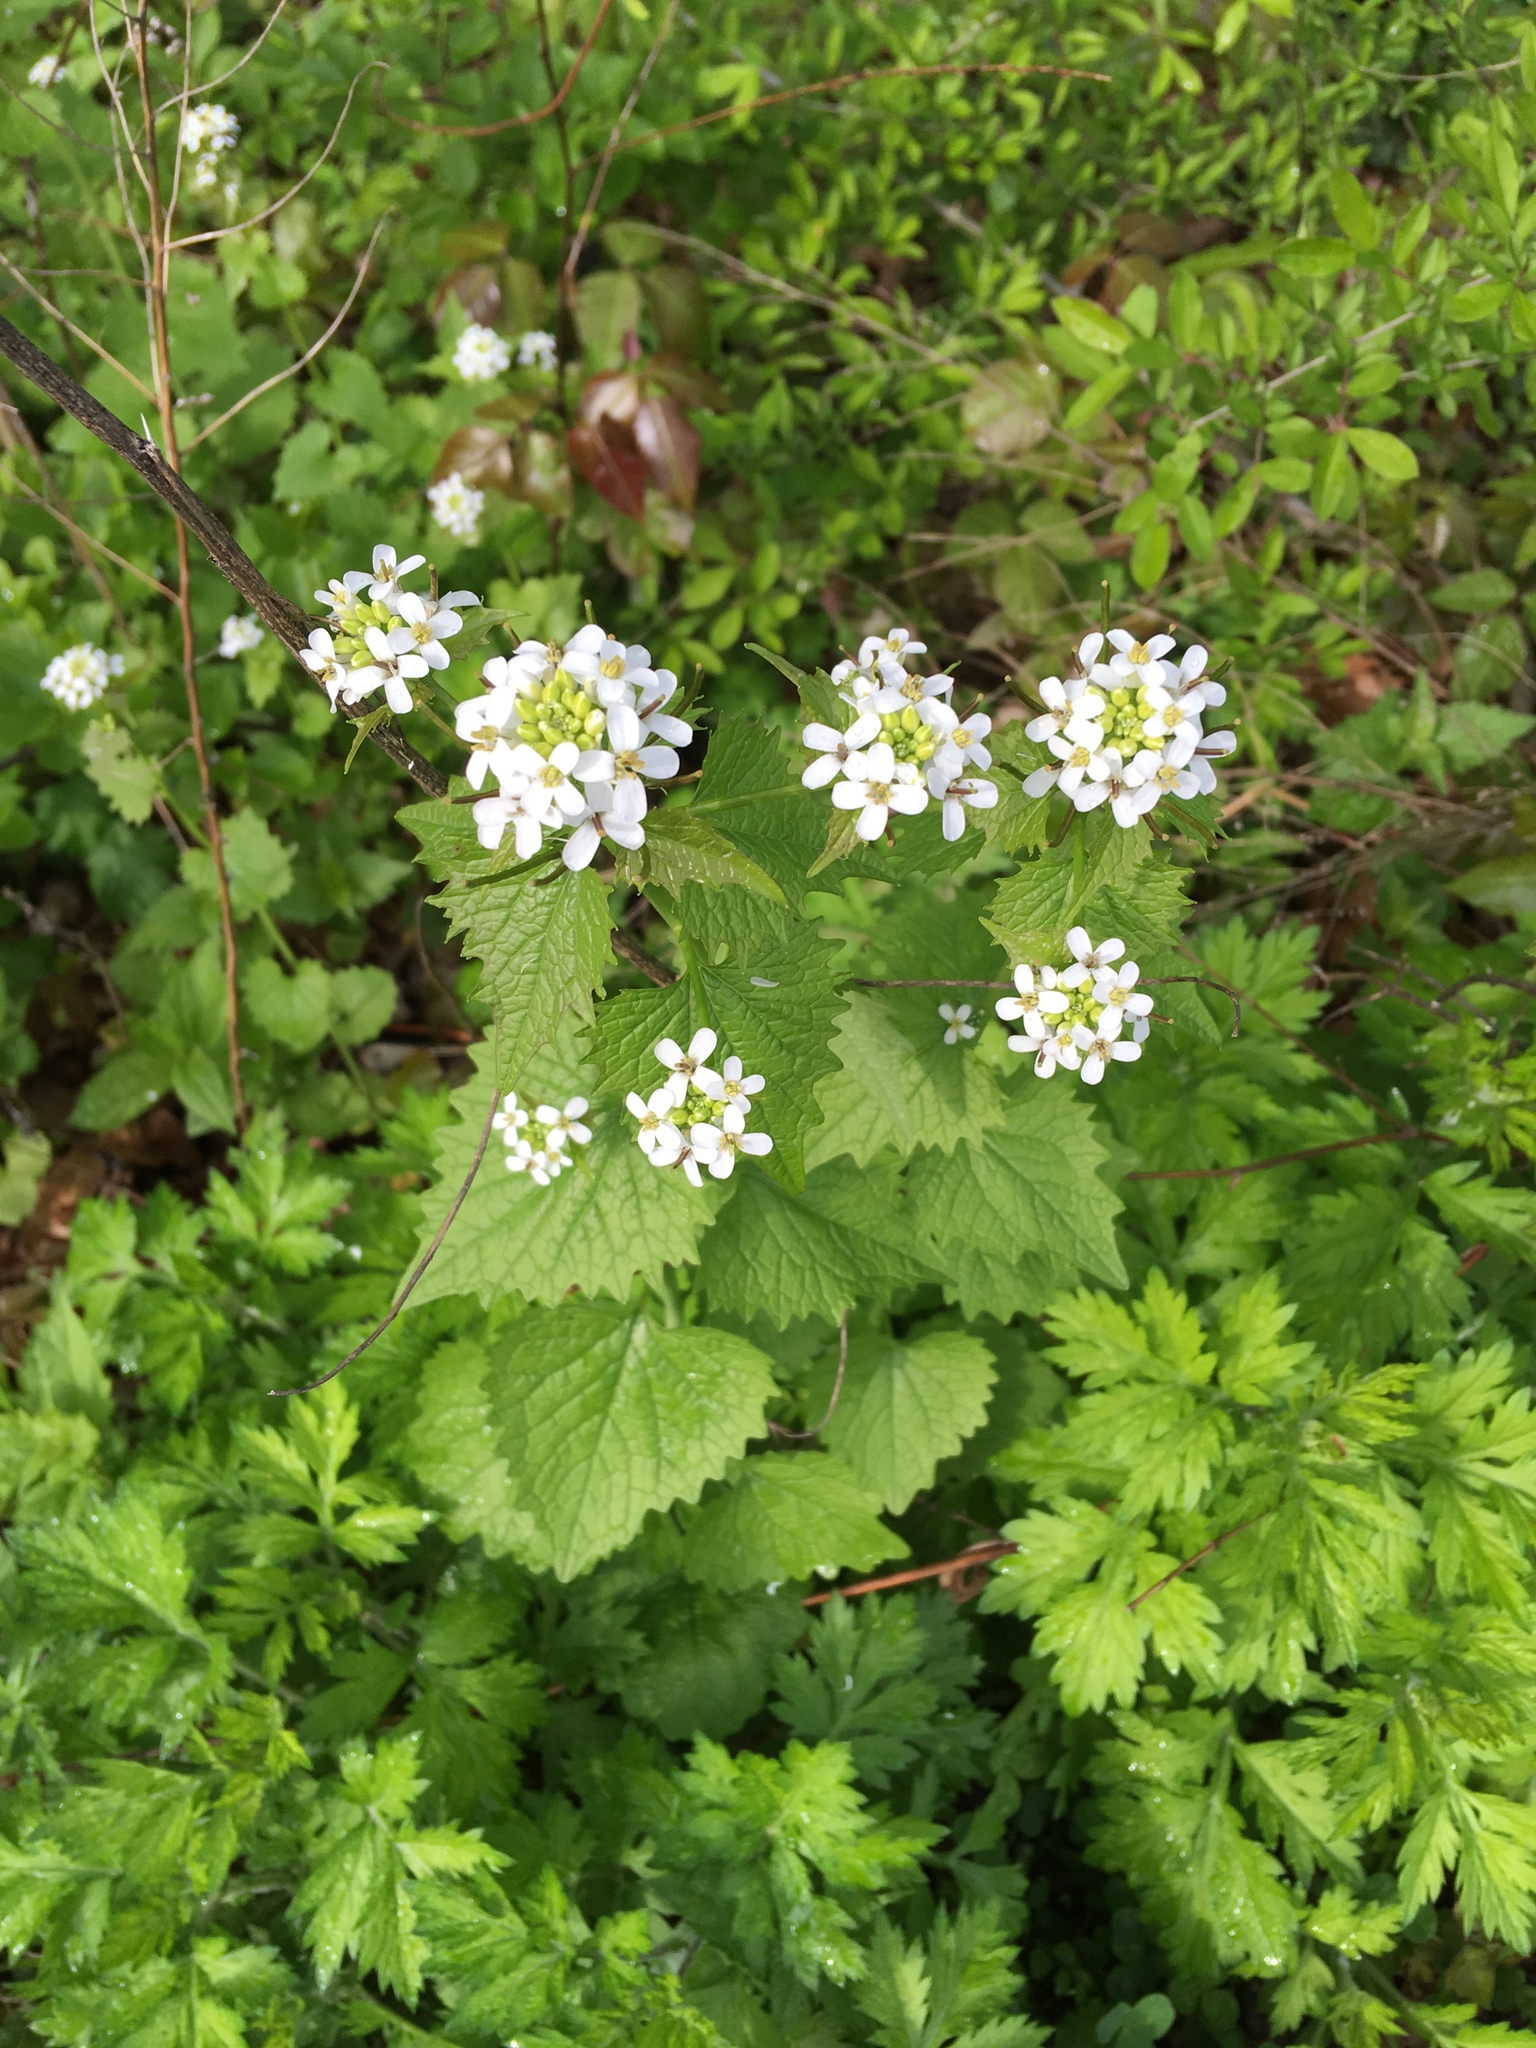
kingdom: Plantae
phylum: Tracheophyta
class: Magnoliopsida
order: Brassicales
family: Brassicaceae
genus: Alliaria
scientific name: Alliaria petiolata
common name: Garlic mustard
